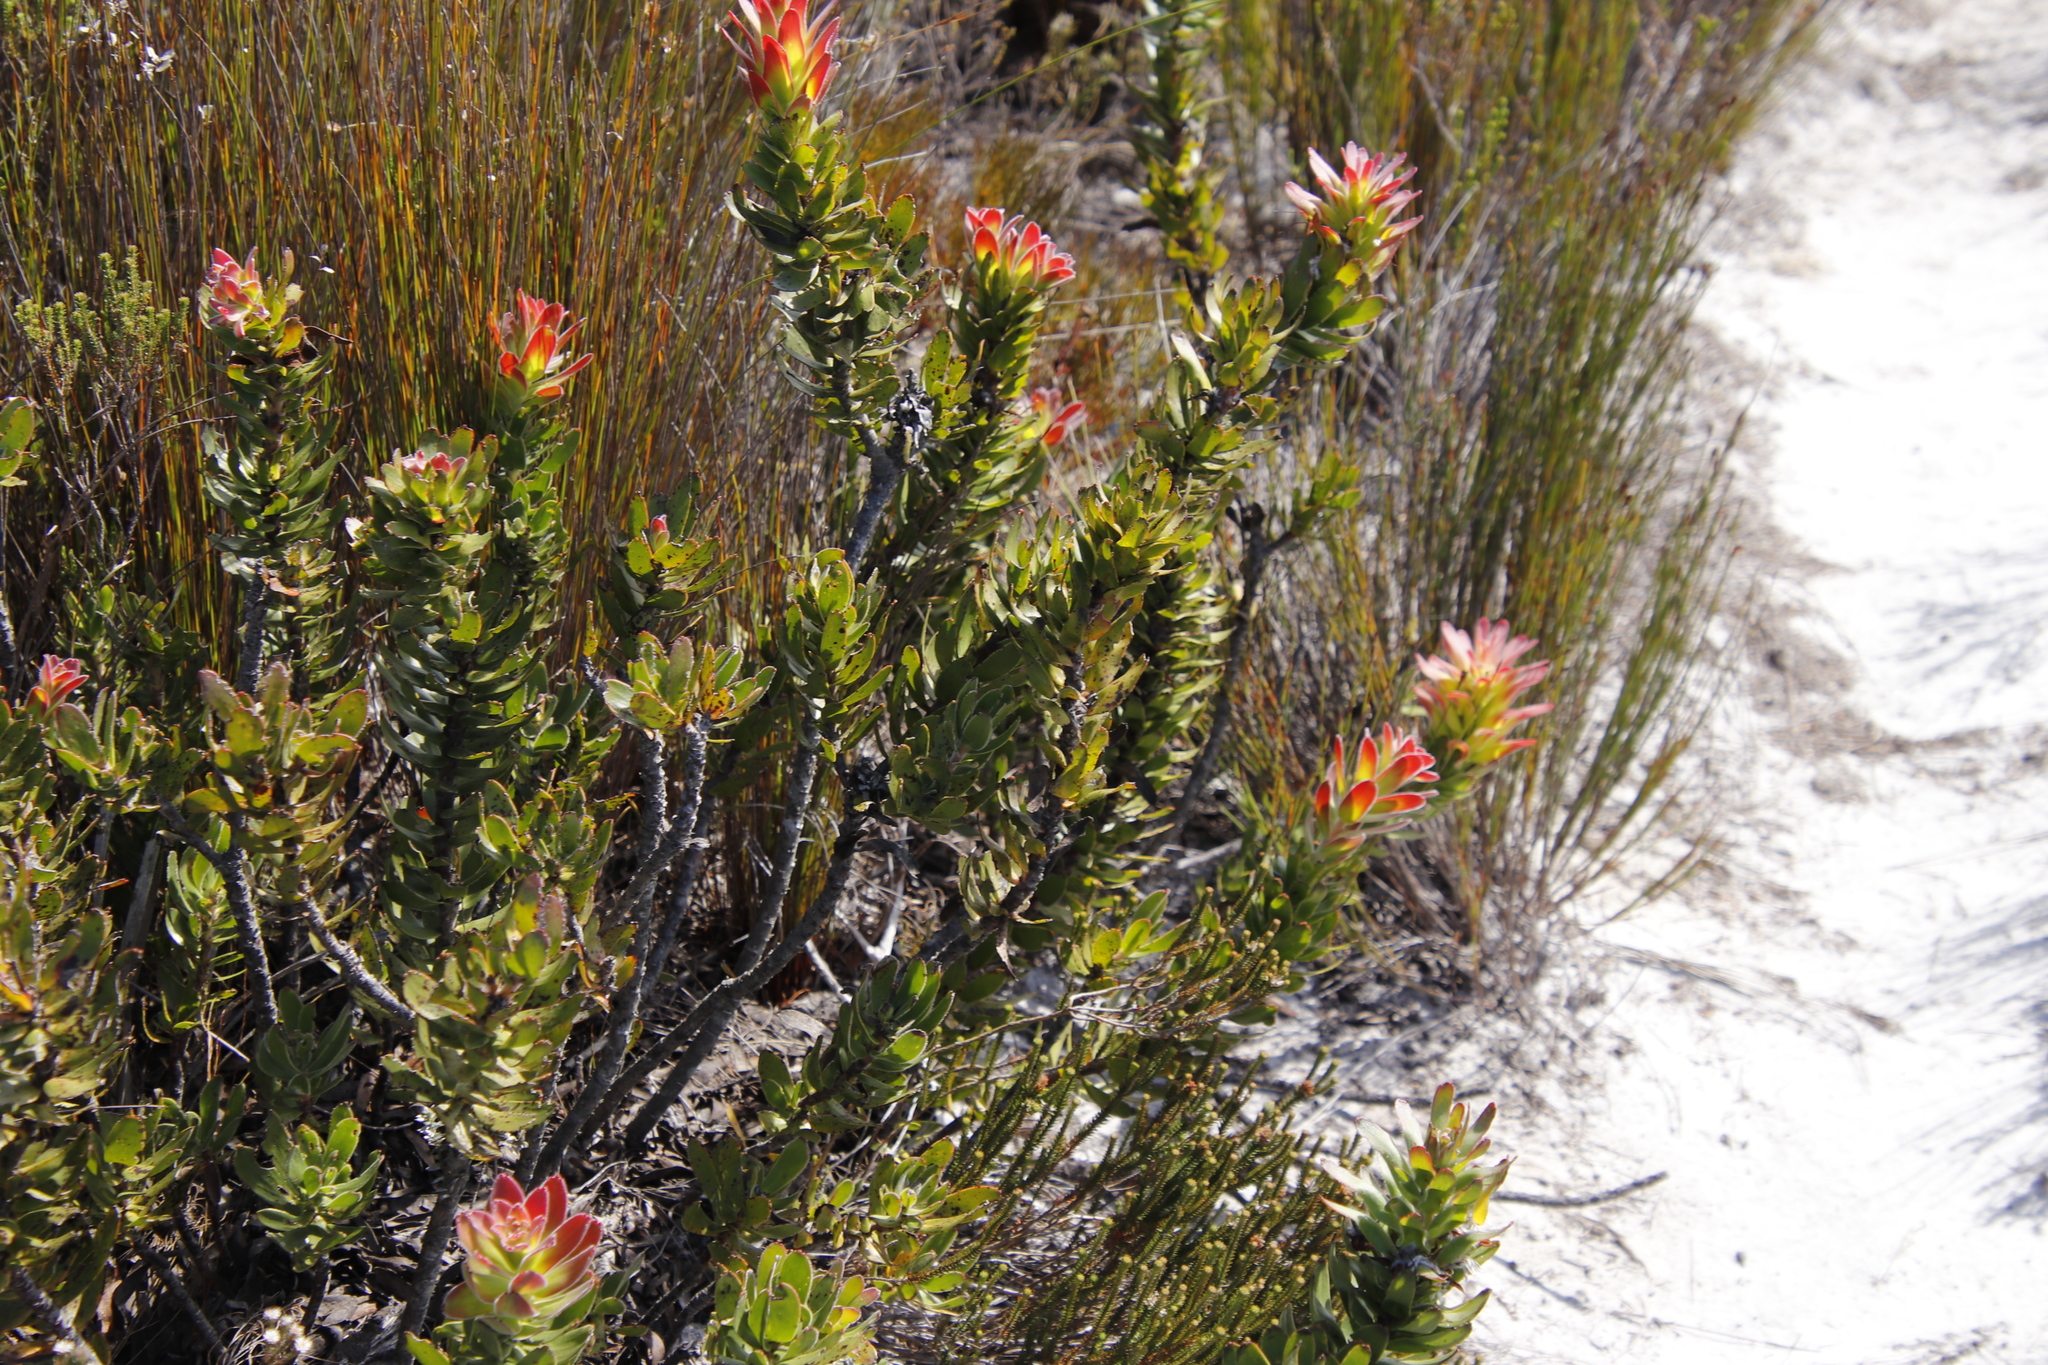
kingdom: Plantae
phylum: Tracheophyta
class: Magnoliopsida
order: Proteales
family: Proteaceae
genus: Mimetes
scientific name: Mimetes cucullatus
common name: Common pagoda
